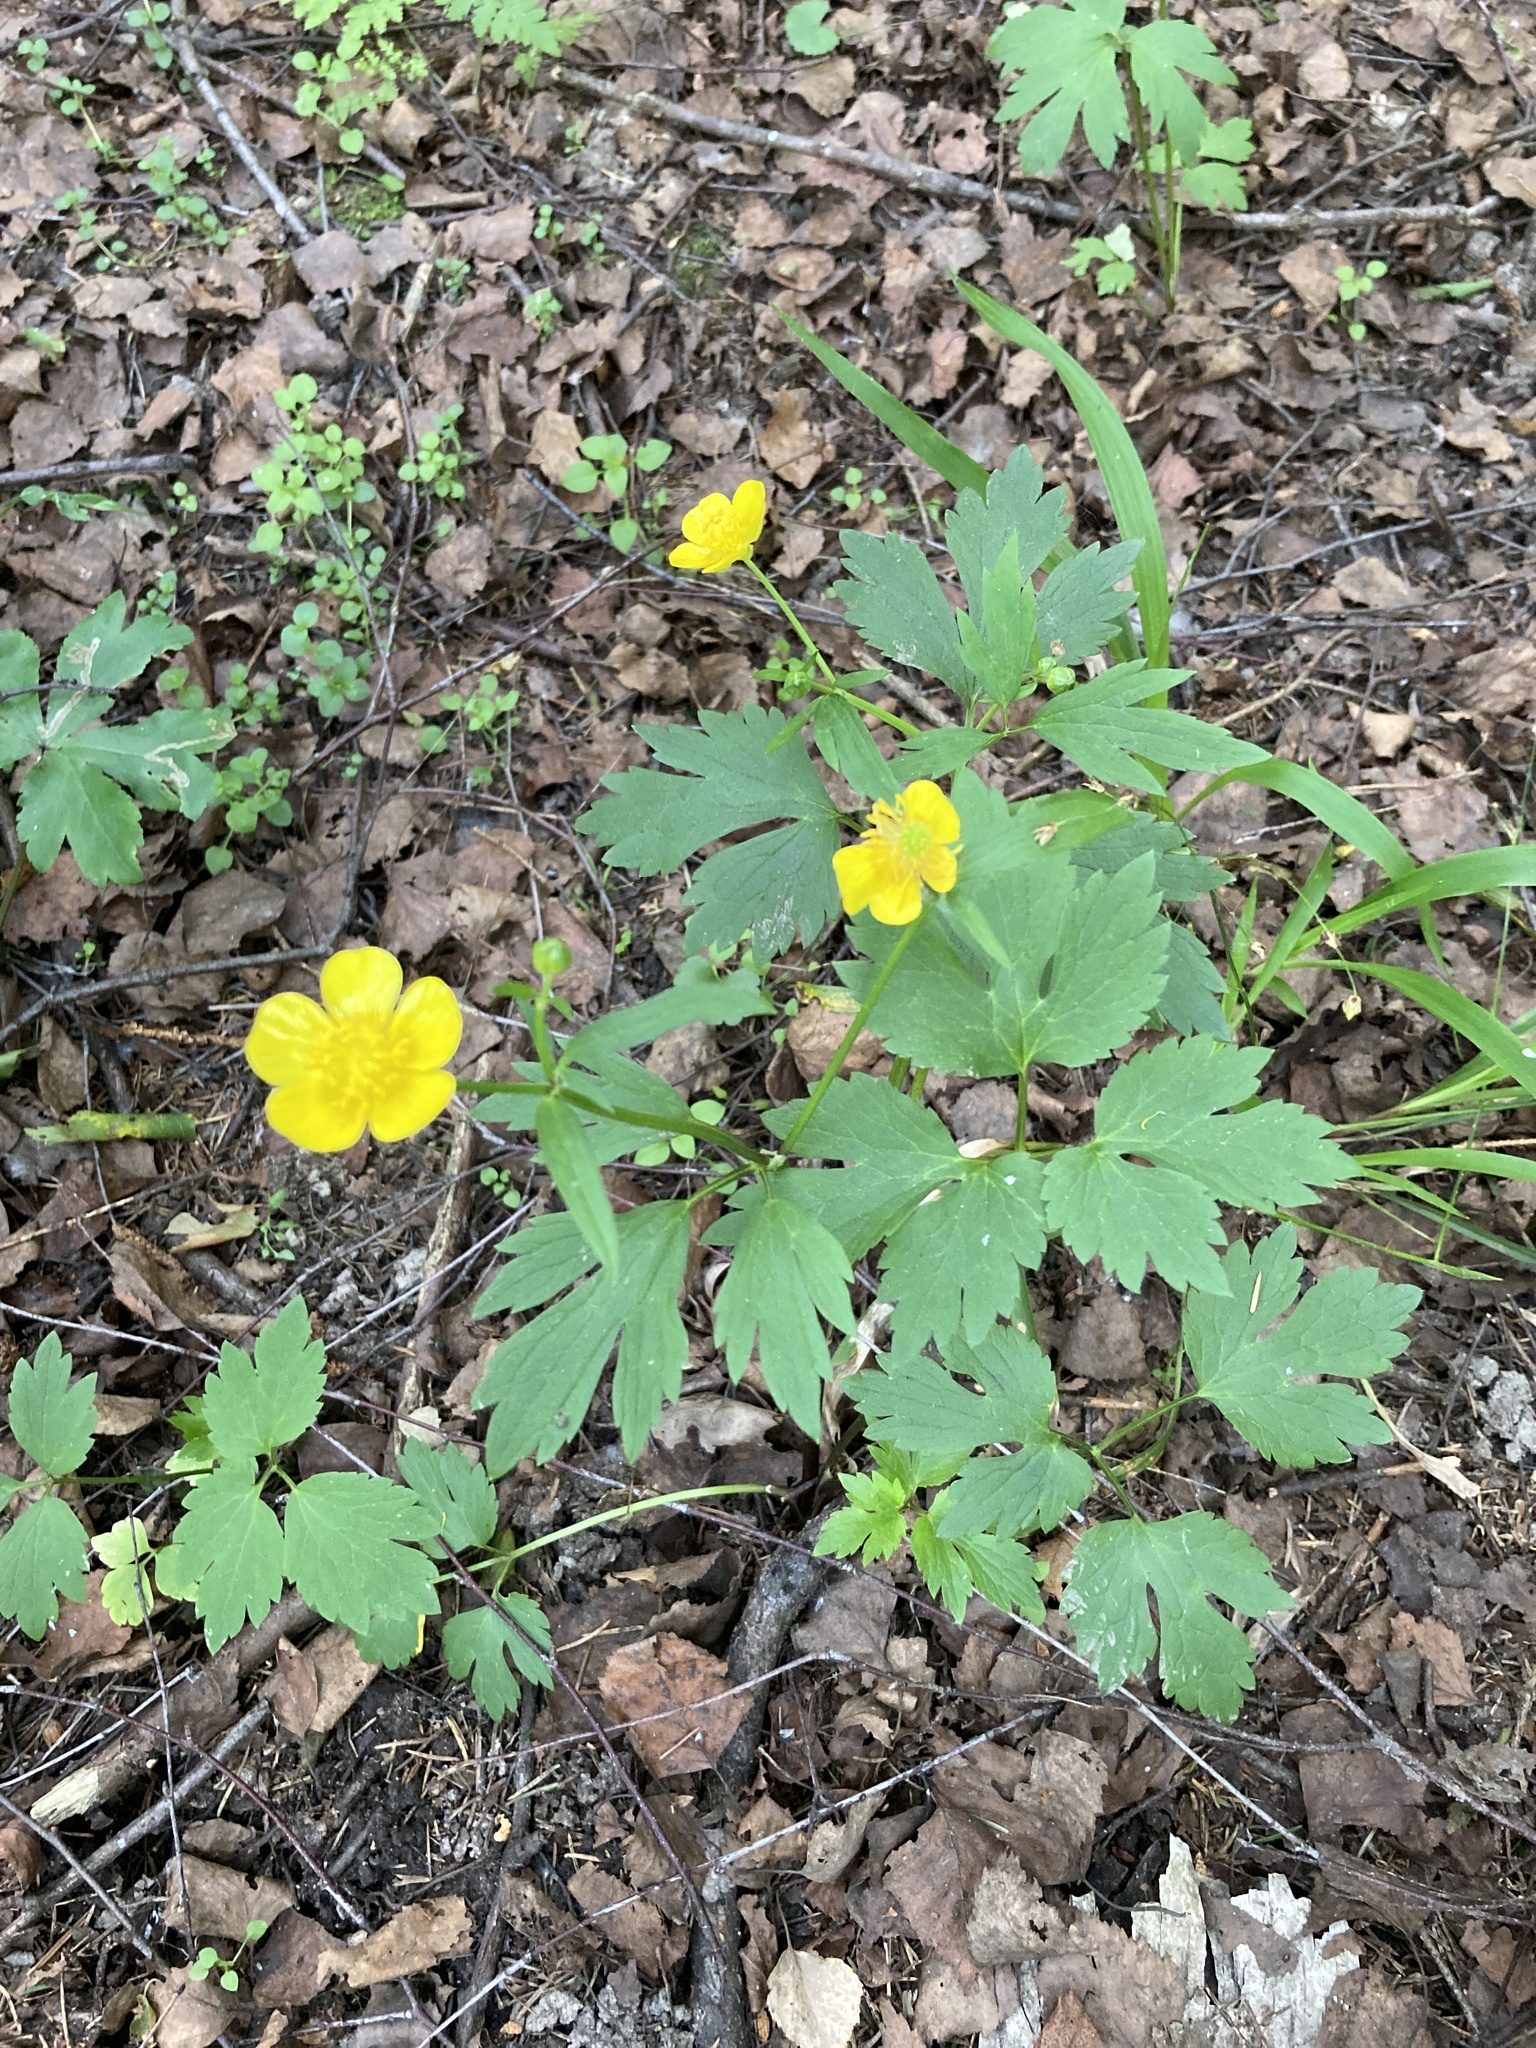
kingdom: Plantae
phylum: Tracheophyta
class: Magnoliopsida
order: Ranunculales
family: Ranunculaceae
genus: Ranunculus
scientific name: Ranunculus repens
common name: Creeping buttercup
